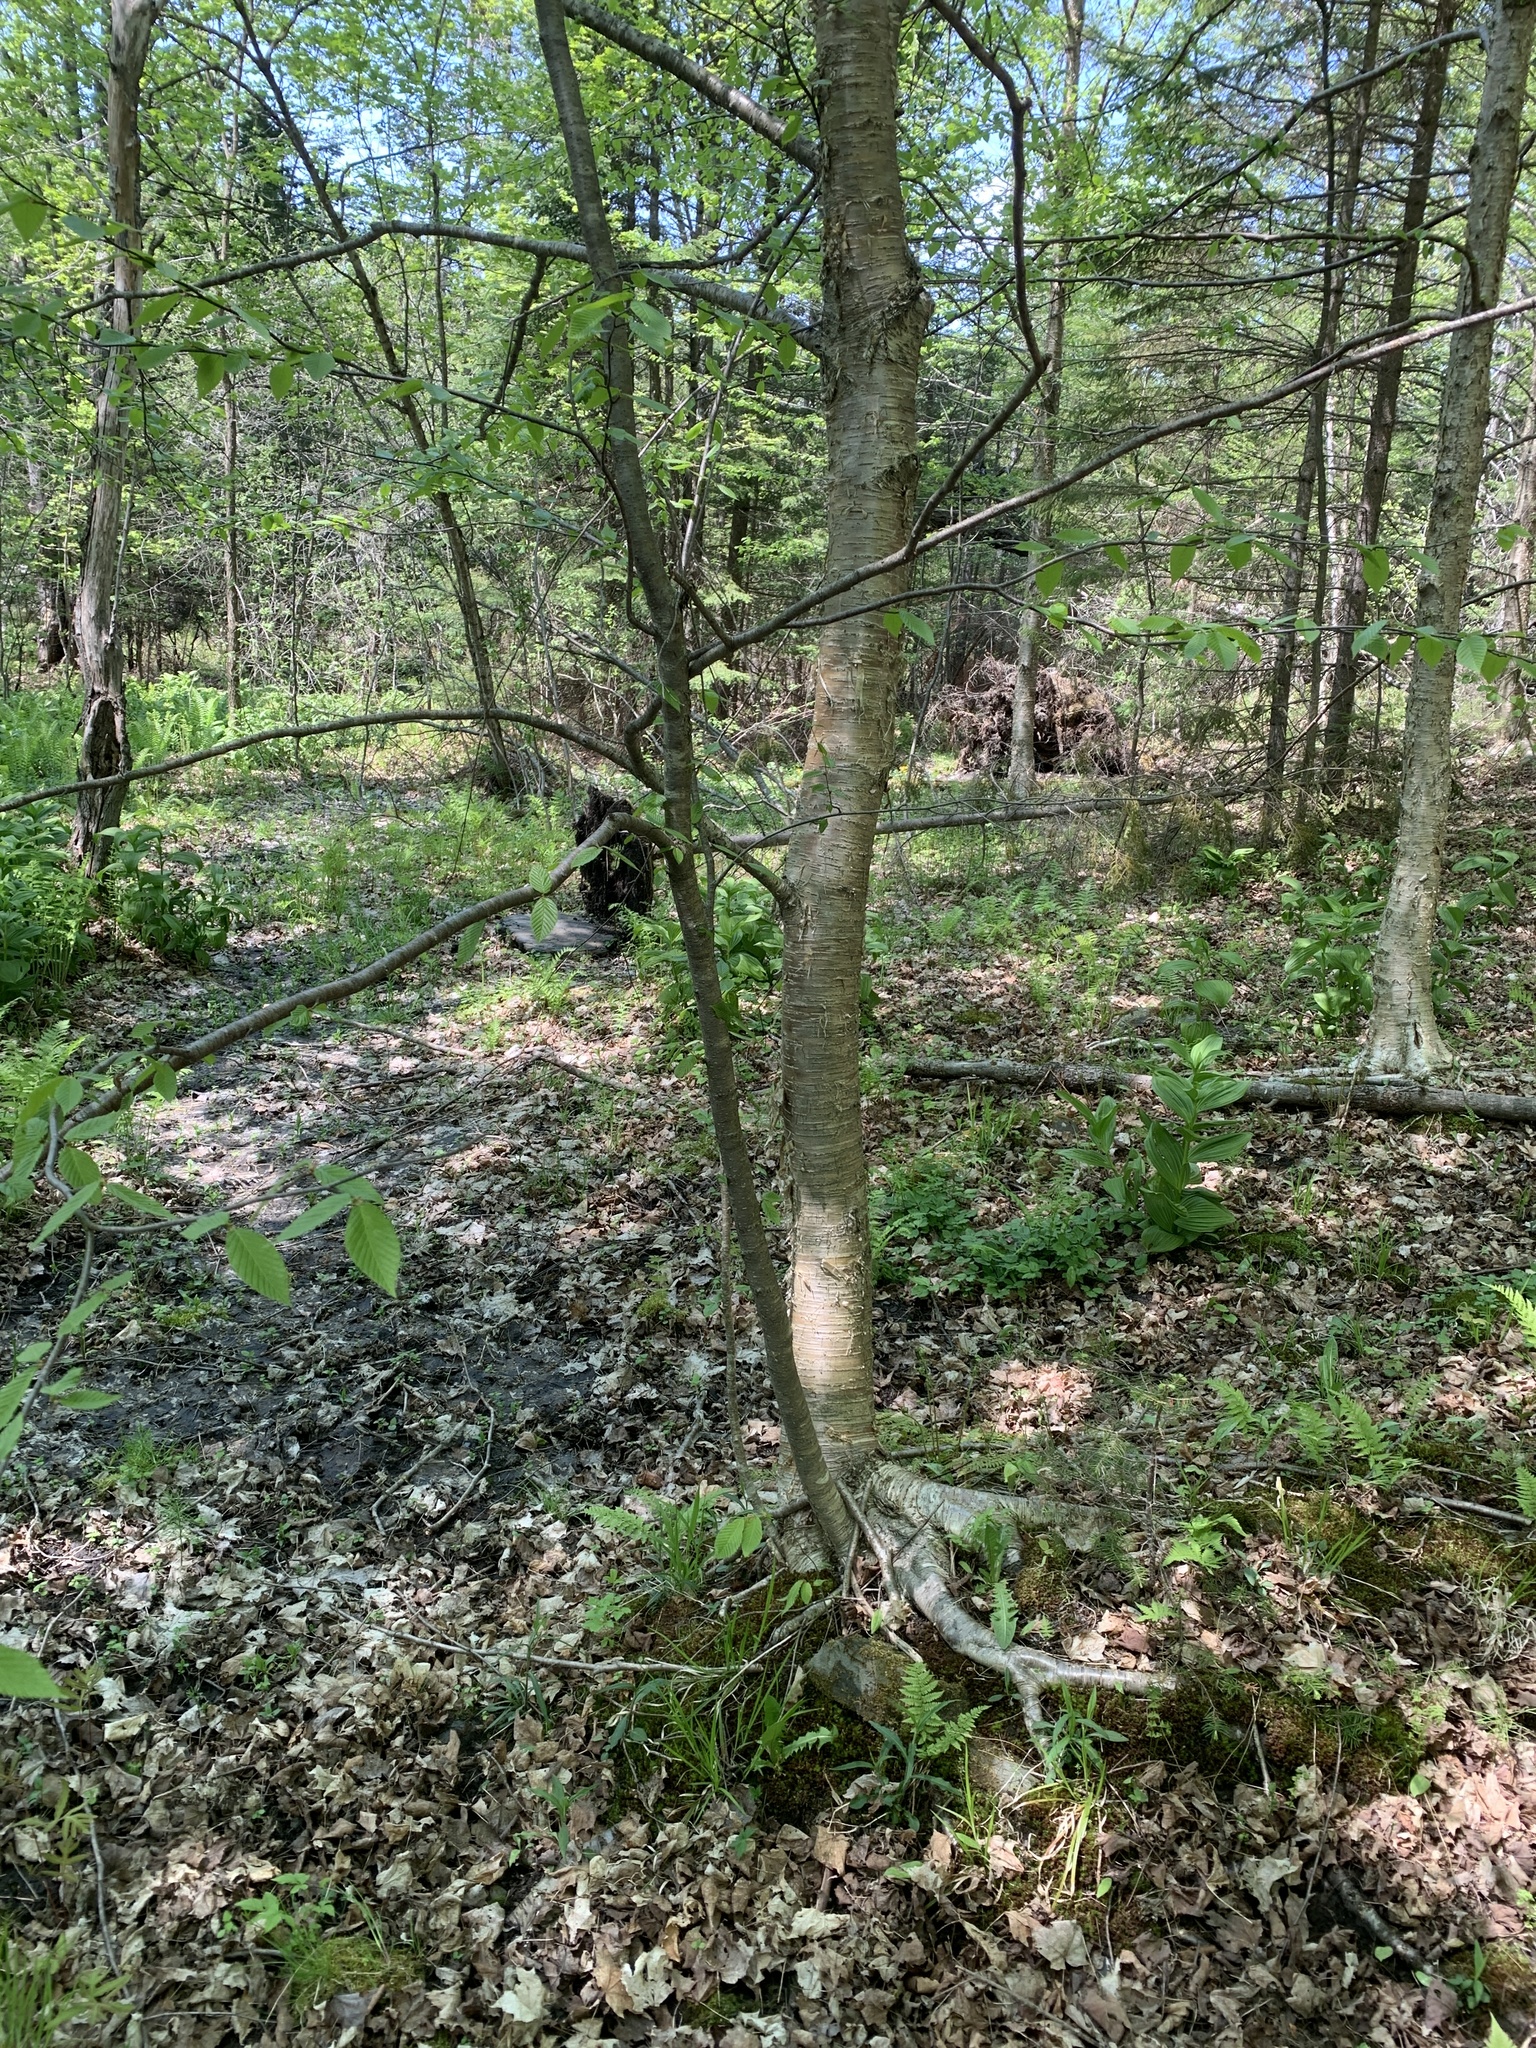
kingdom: Plantae
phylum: Tracheophyta
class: Magnoliopsida
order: Fagales
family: Betulaceae
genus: Betula
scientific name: Betula alleghaniensis
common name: Yellow birch
